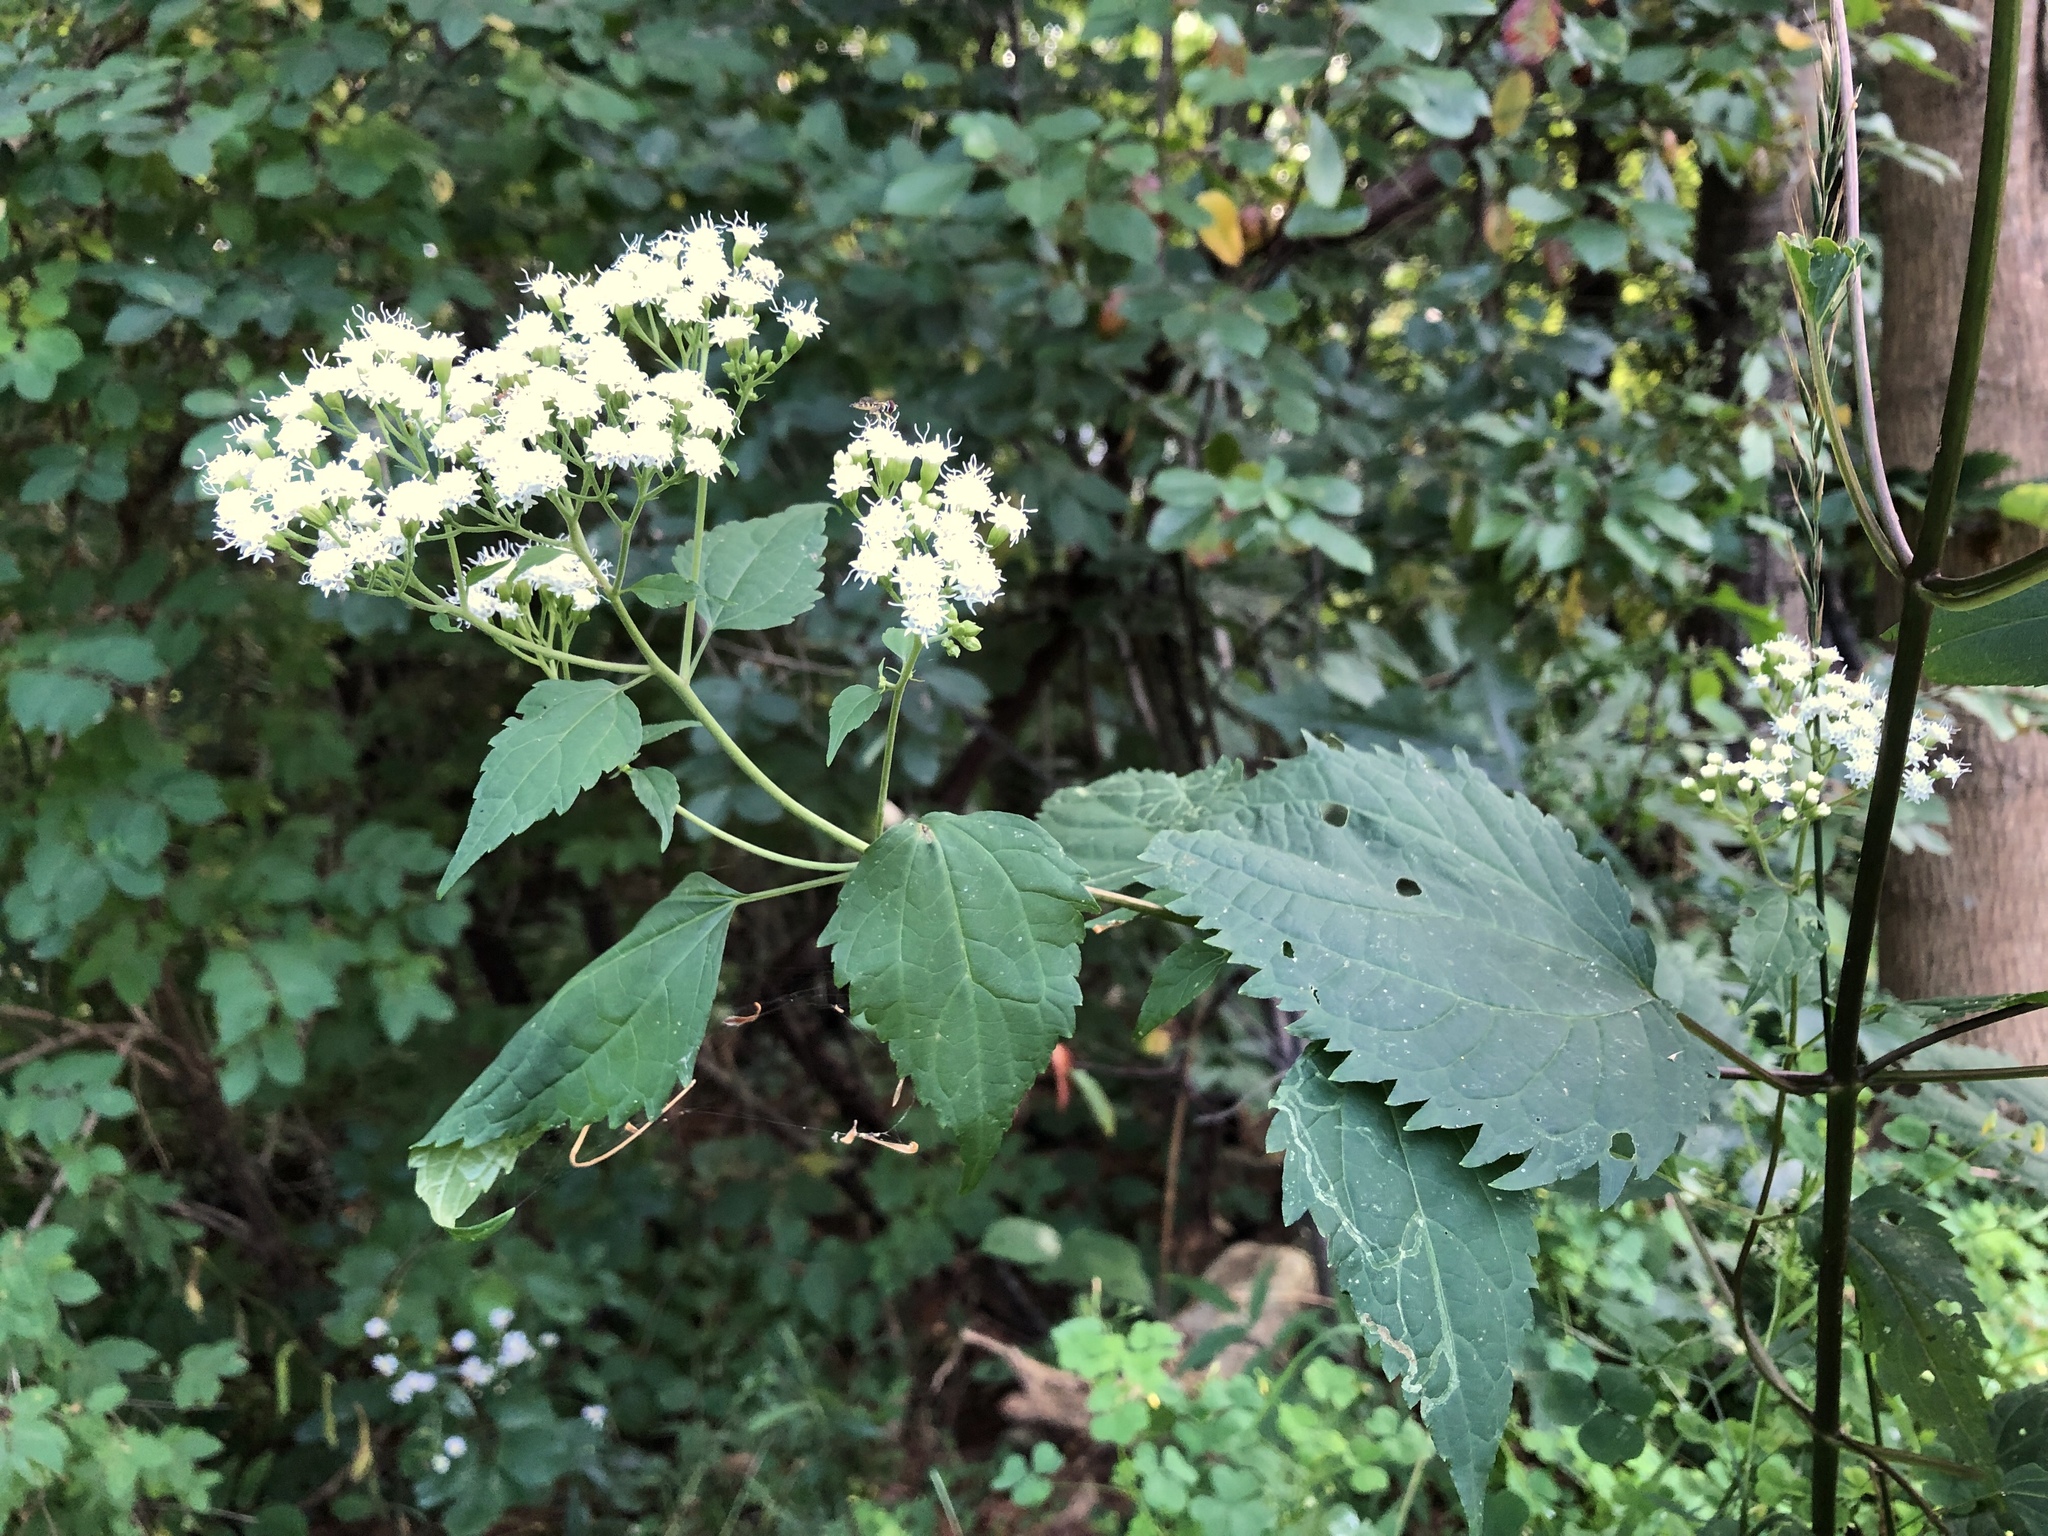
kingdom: Plantae
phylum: Tracheophyta
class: Magnoliopsida
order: Asterales
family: Asteraceae
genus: Ageratina
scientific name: Ageratina altissima
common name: White snakeroot
